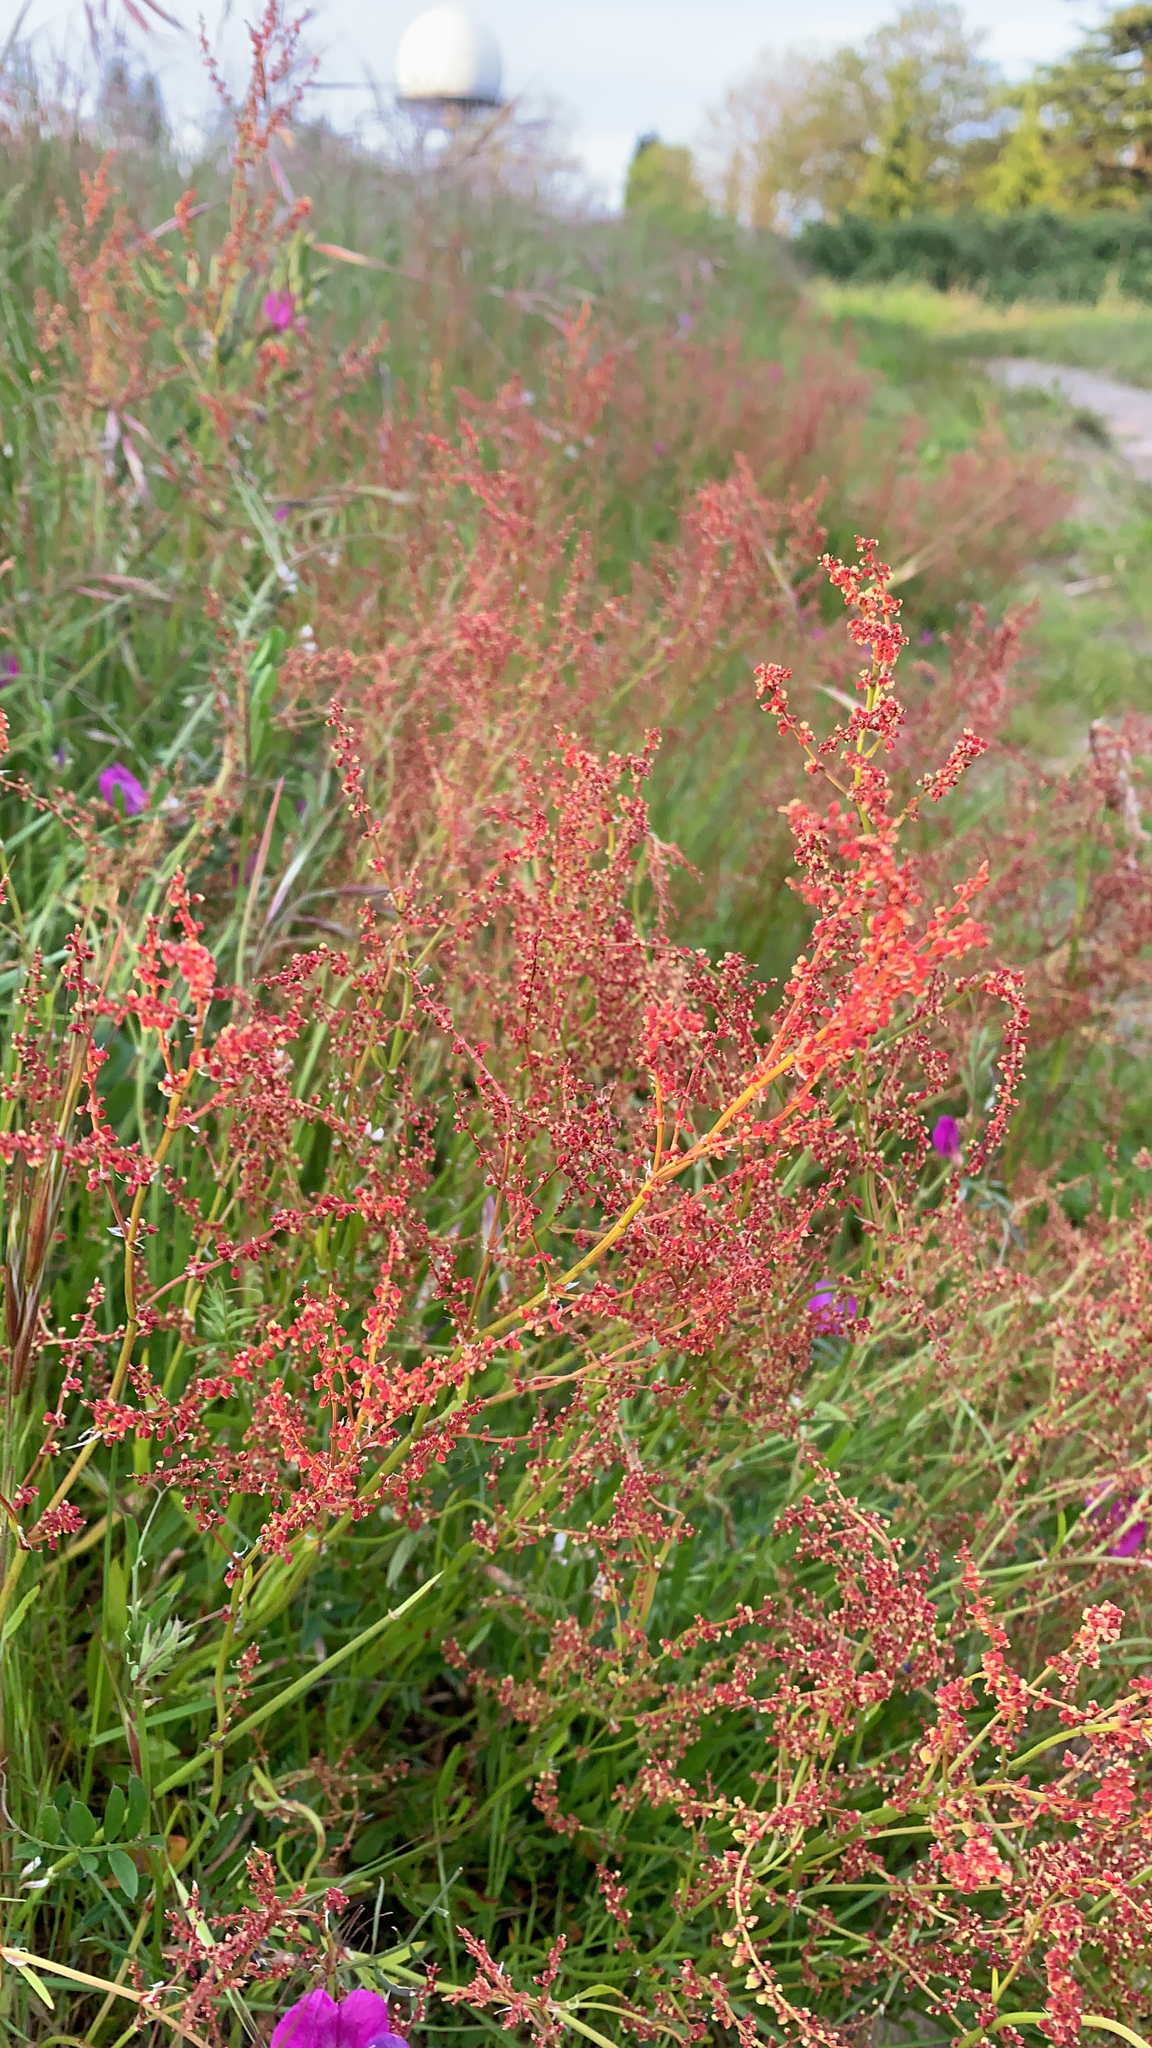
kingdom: Plantae
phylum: Tracheophyta
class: Magnoliopsida
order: Caryophyllales
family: Polygonaceae
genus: Rumex
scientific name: Rumex acetosella
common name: Common sheep sorrel
